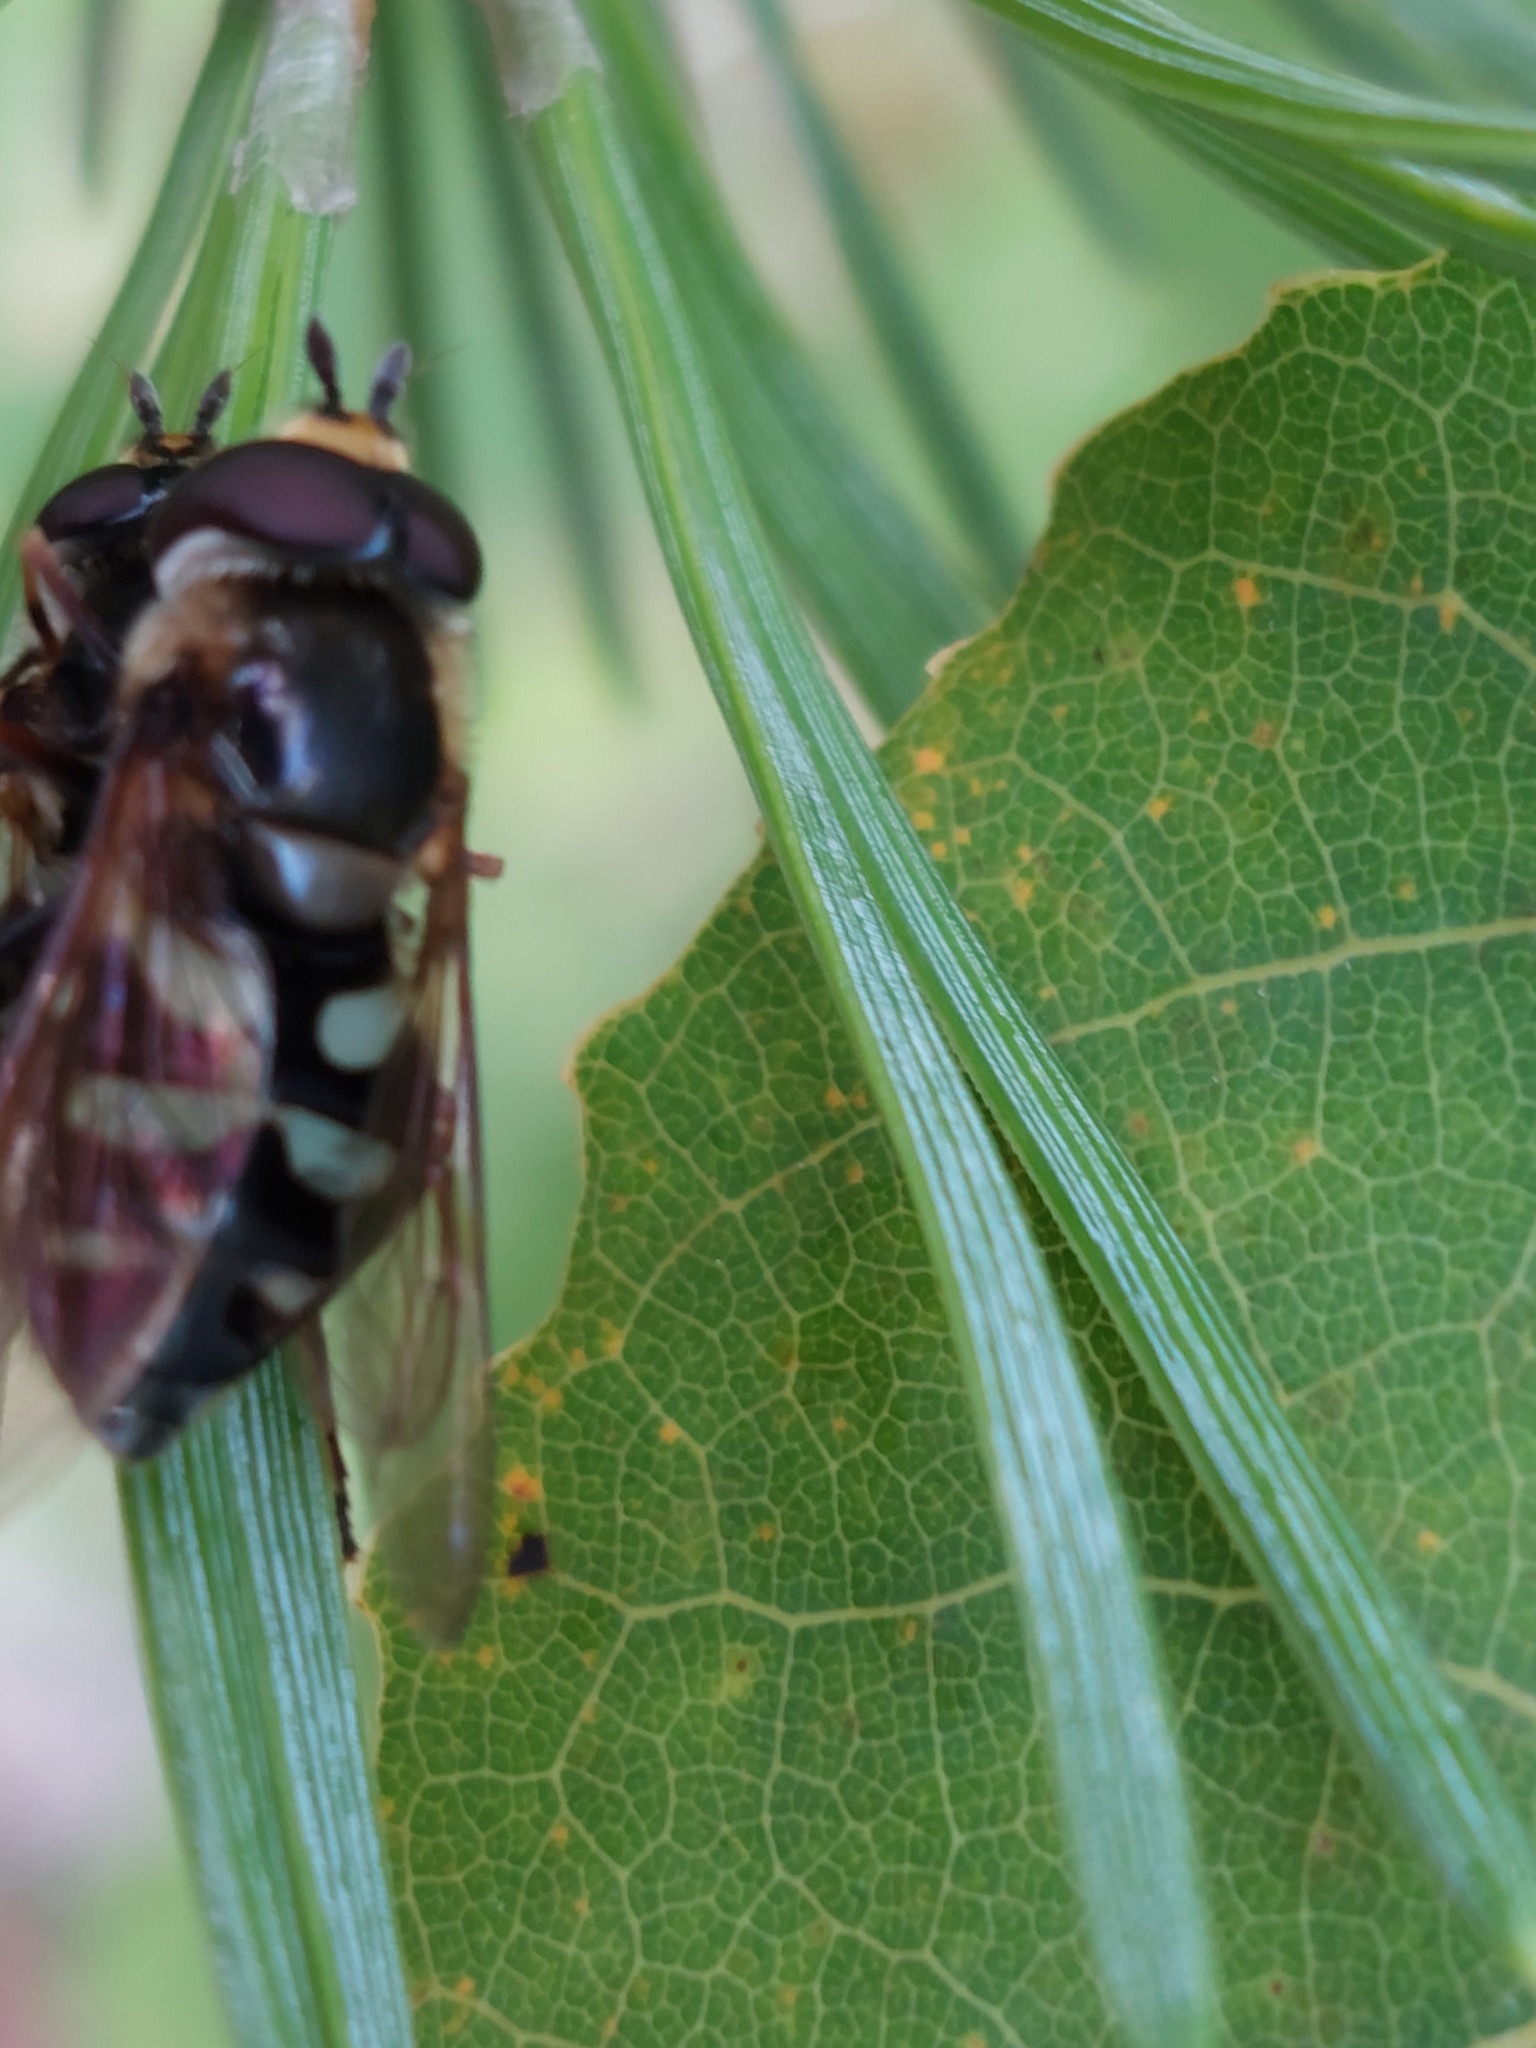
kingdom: Animalia
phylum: Arthropoda
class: Insecta
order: Diptera
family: Syrphidae
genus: Didea
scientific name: Didea alneti
